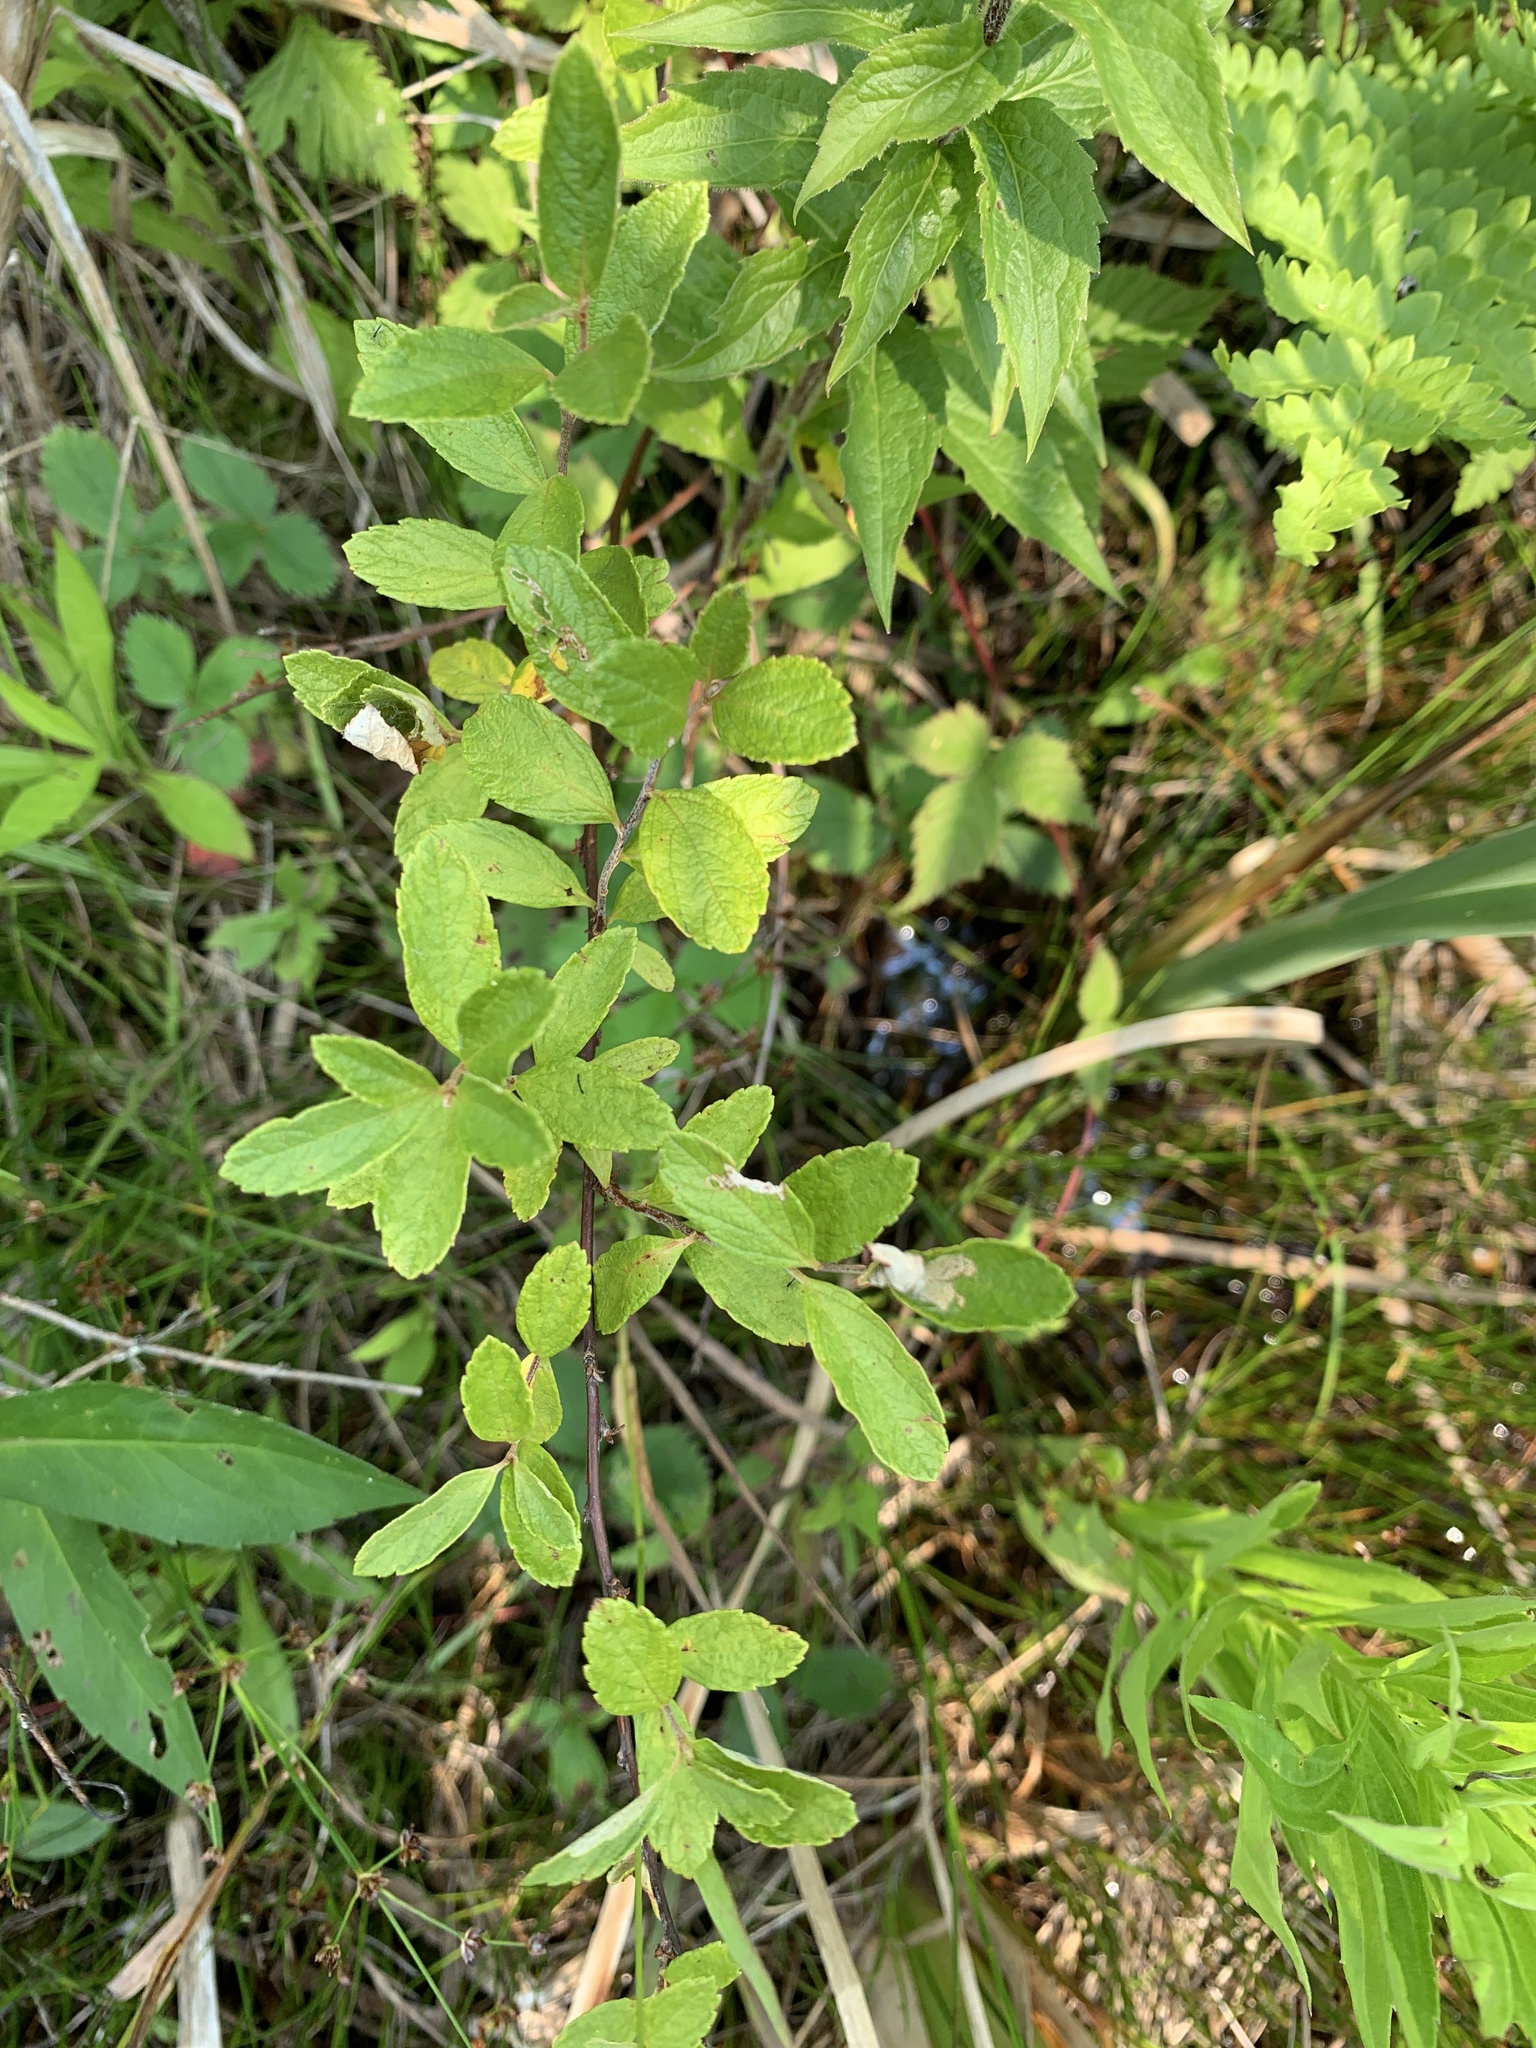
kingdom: Plantae
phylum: Tracheophyta
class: Magnoliopsida
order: Rosales
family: Rosaceae
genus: Spiraea
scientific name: Spiraea tomentosa
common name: Hardhack
